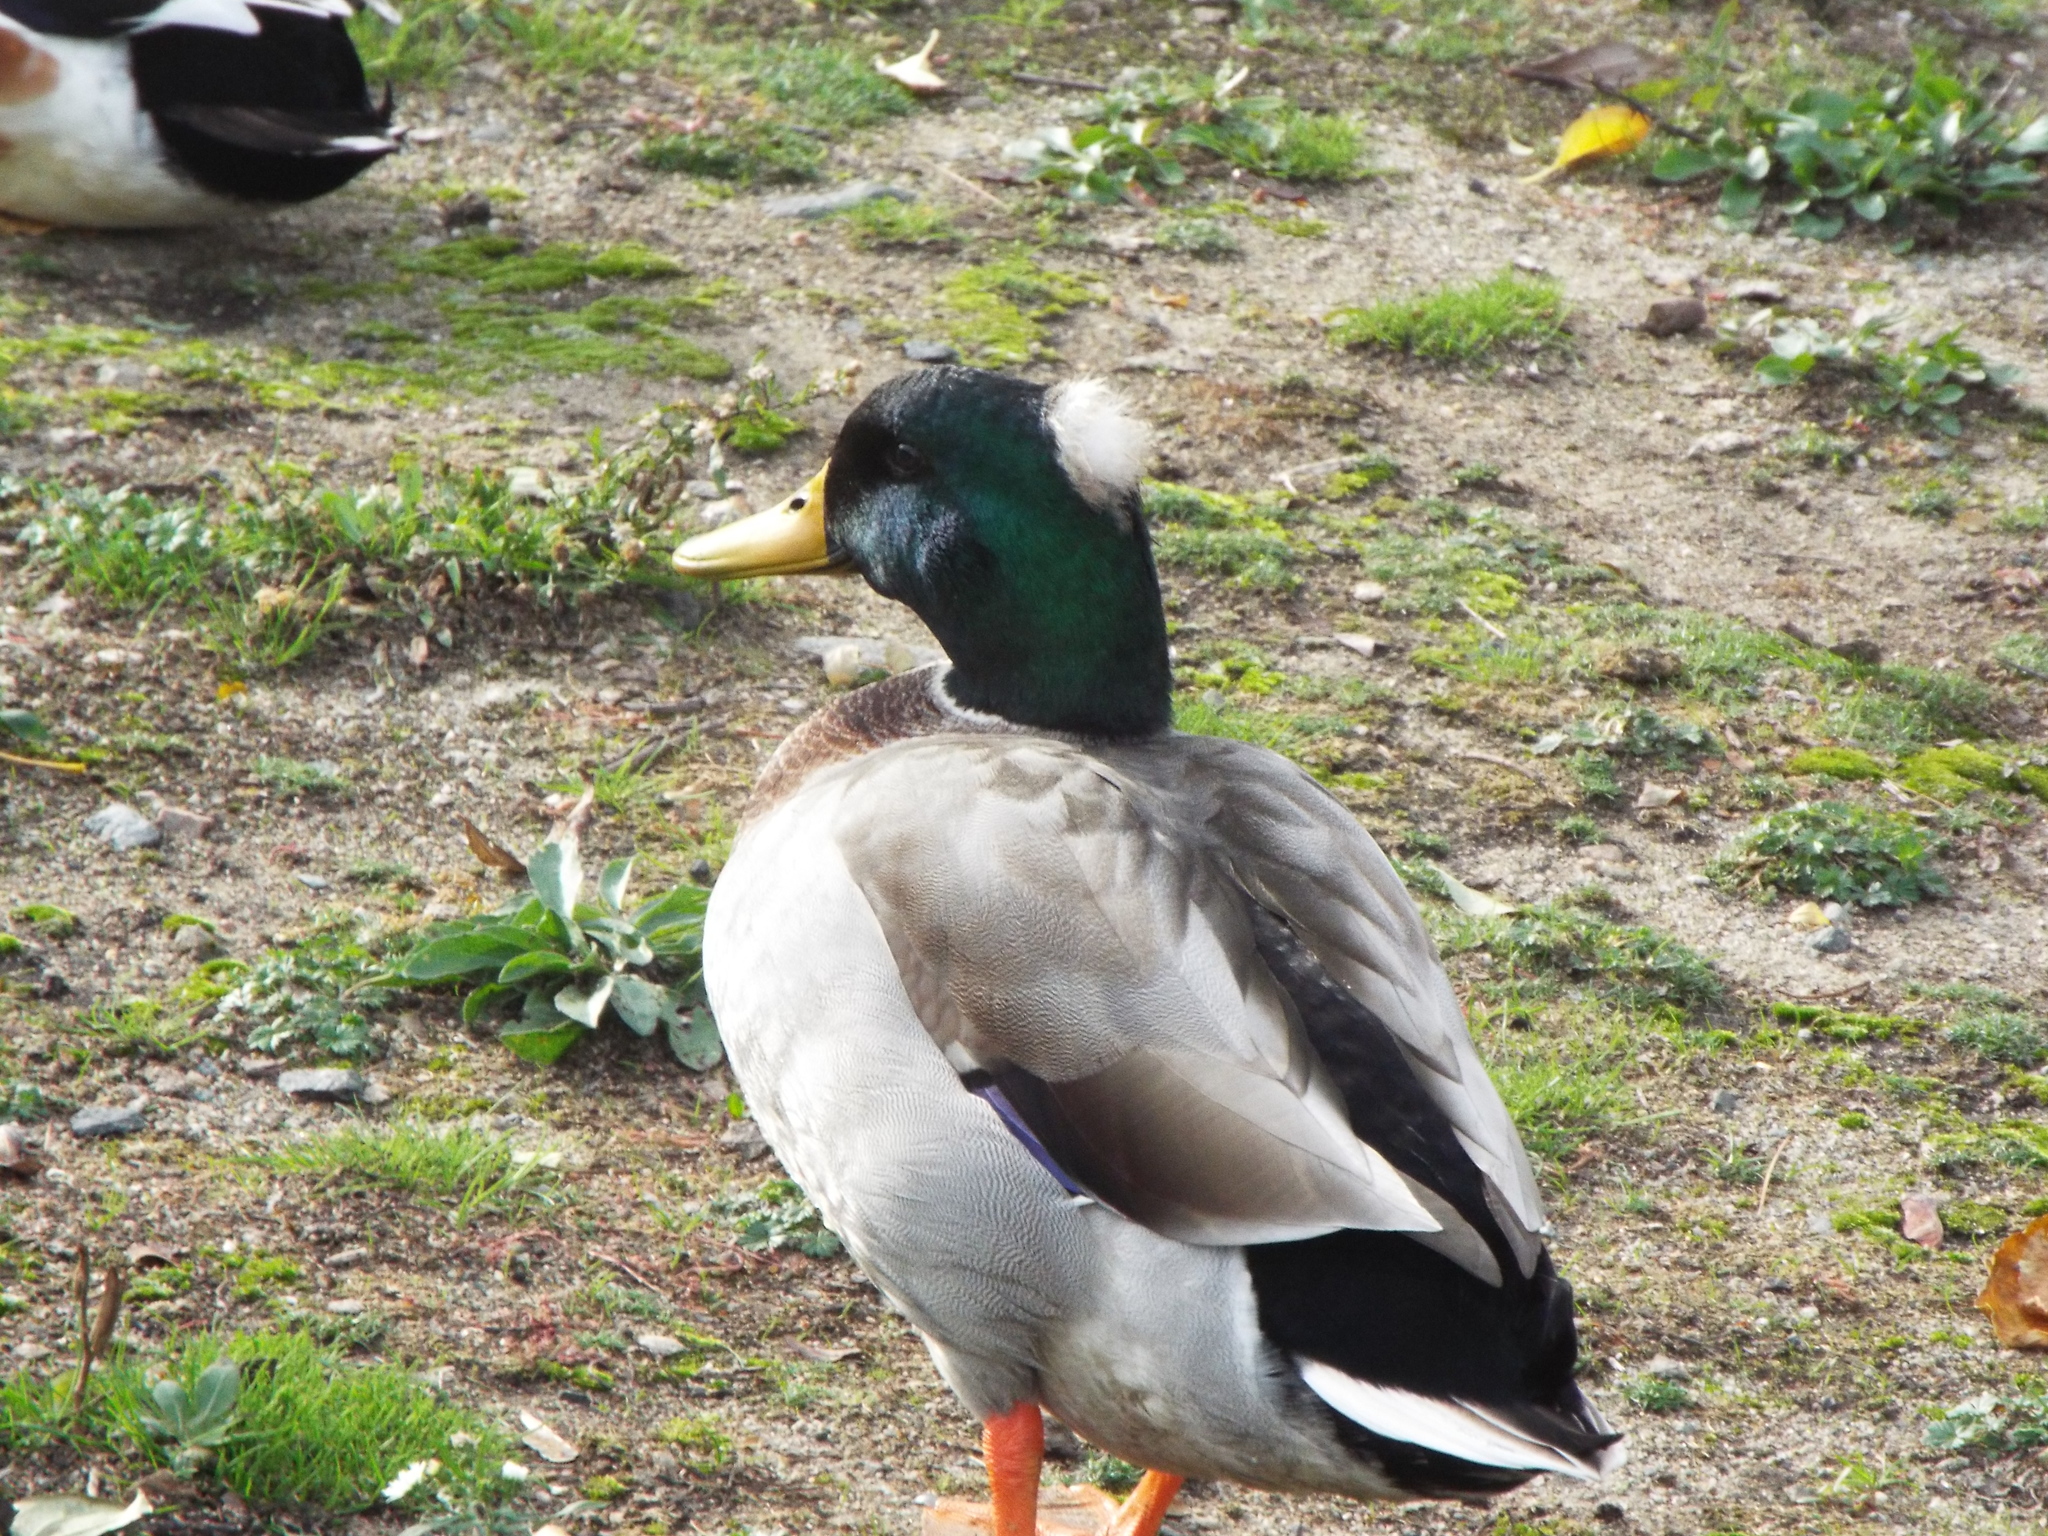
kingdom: Animalia
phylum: Chordata
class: Aves
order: Anseriformes
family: Anatidae
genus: Anas
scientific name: Anas platyrhynchos
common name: Mallard
